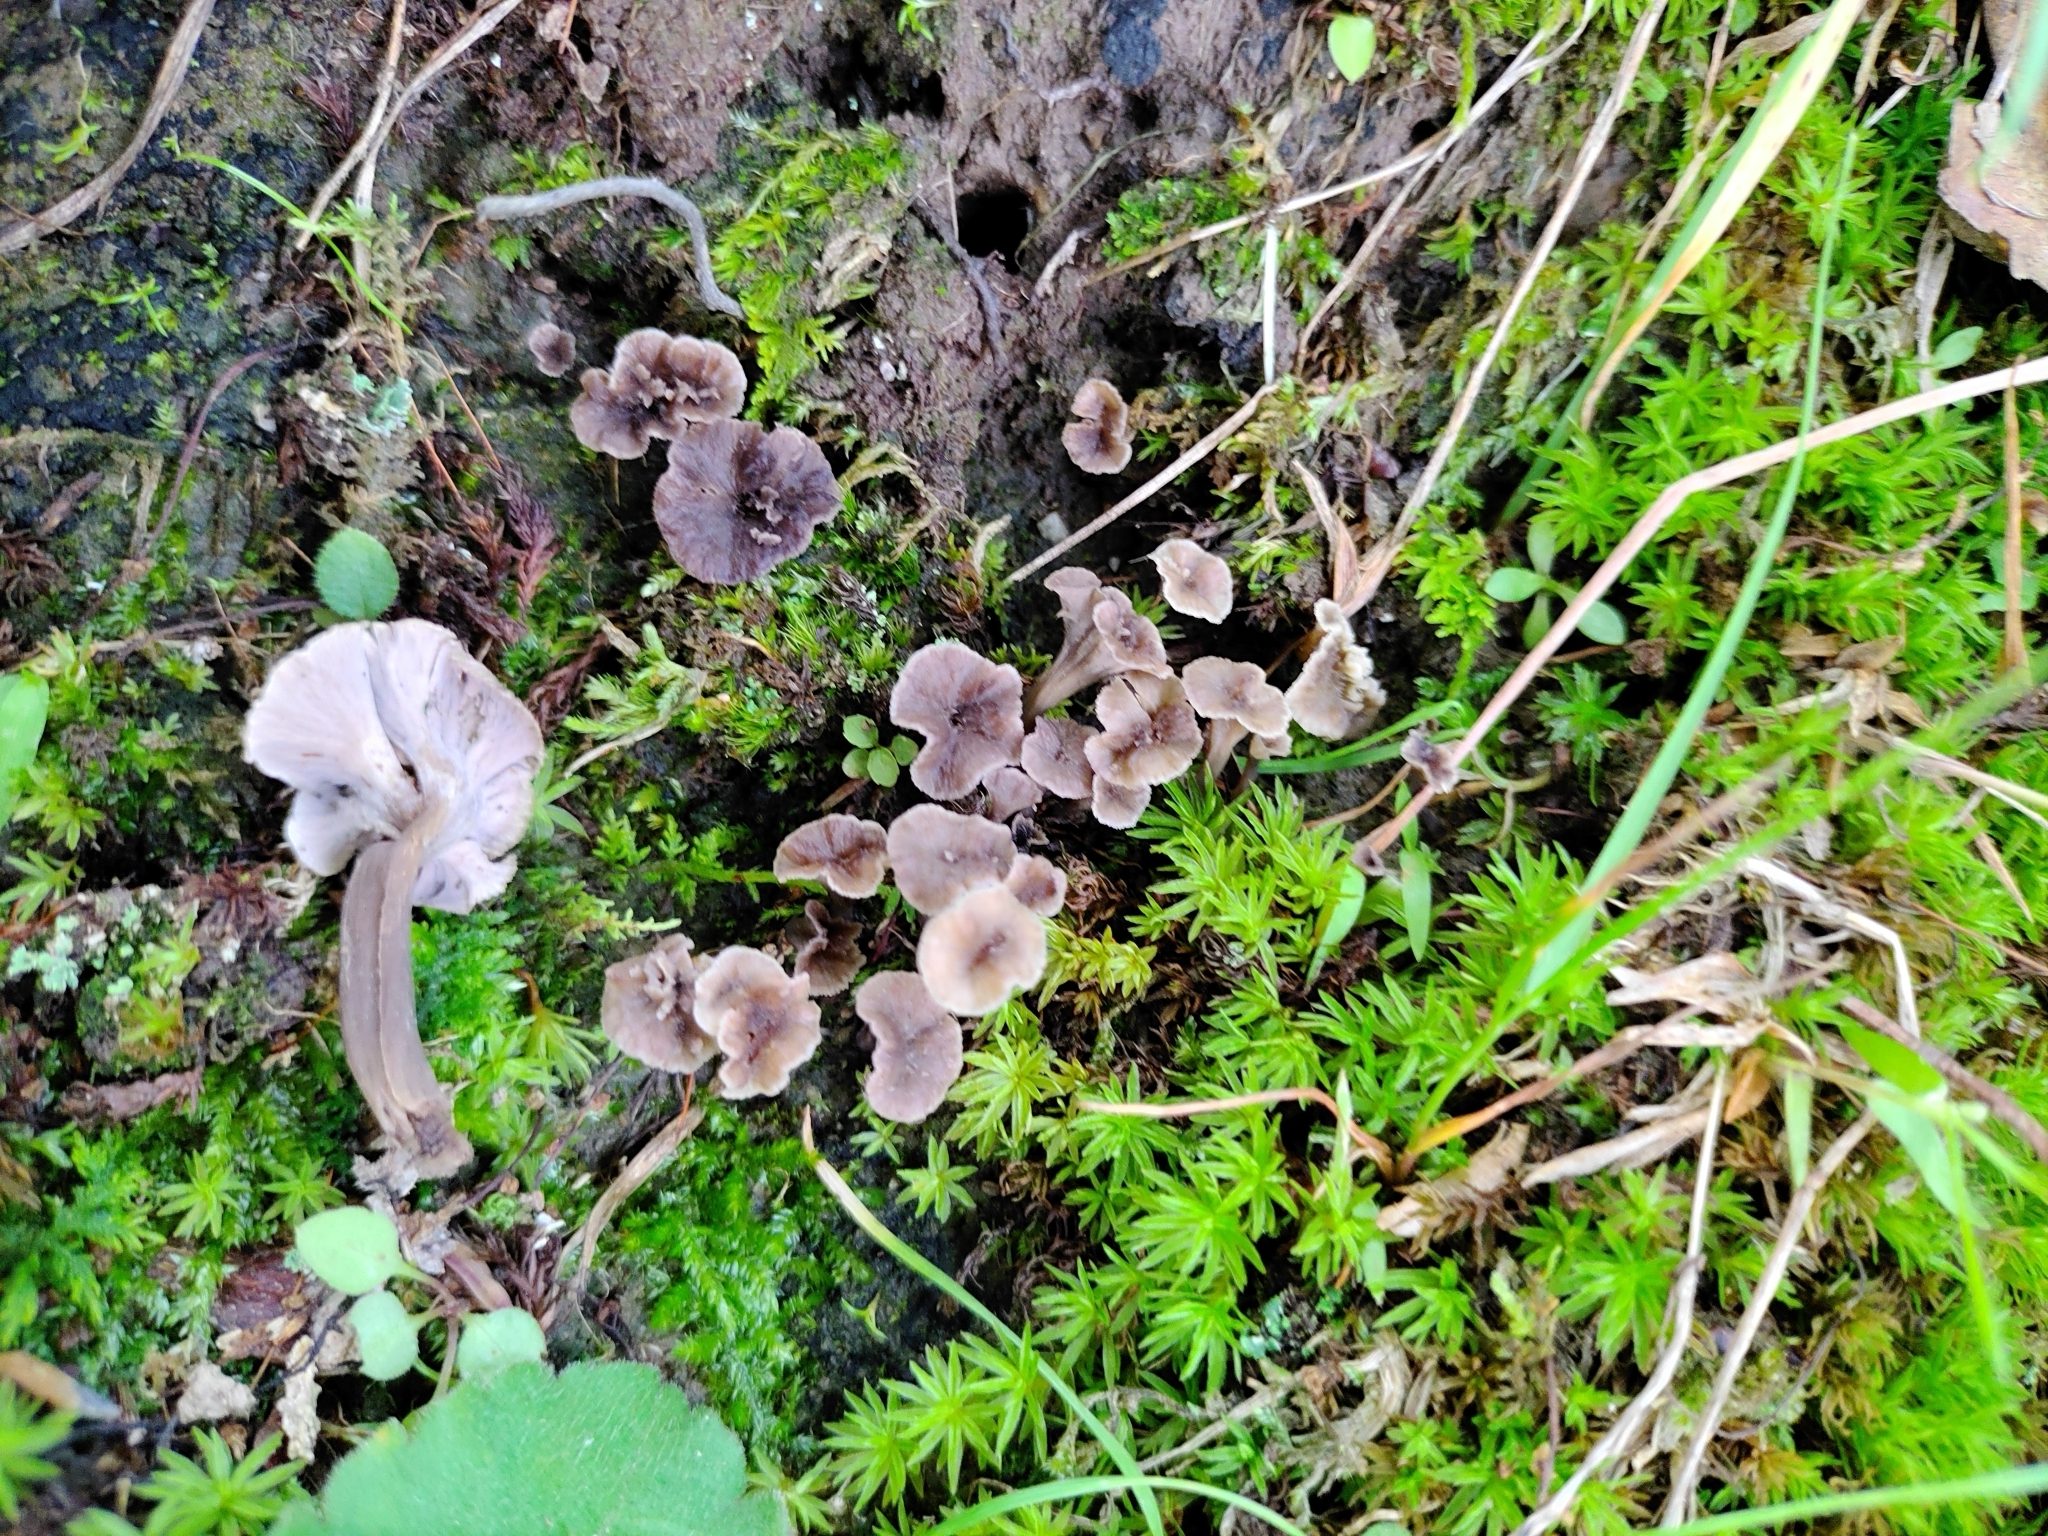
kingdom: Fungi
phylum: Basidiomycota
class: Agaricomycetes
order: Cantharellales
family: Hydnaceae
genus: Pseudocraterellus
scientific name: Pseudocraterellus subundulatus
